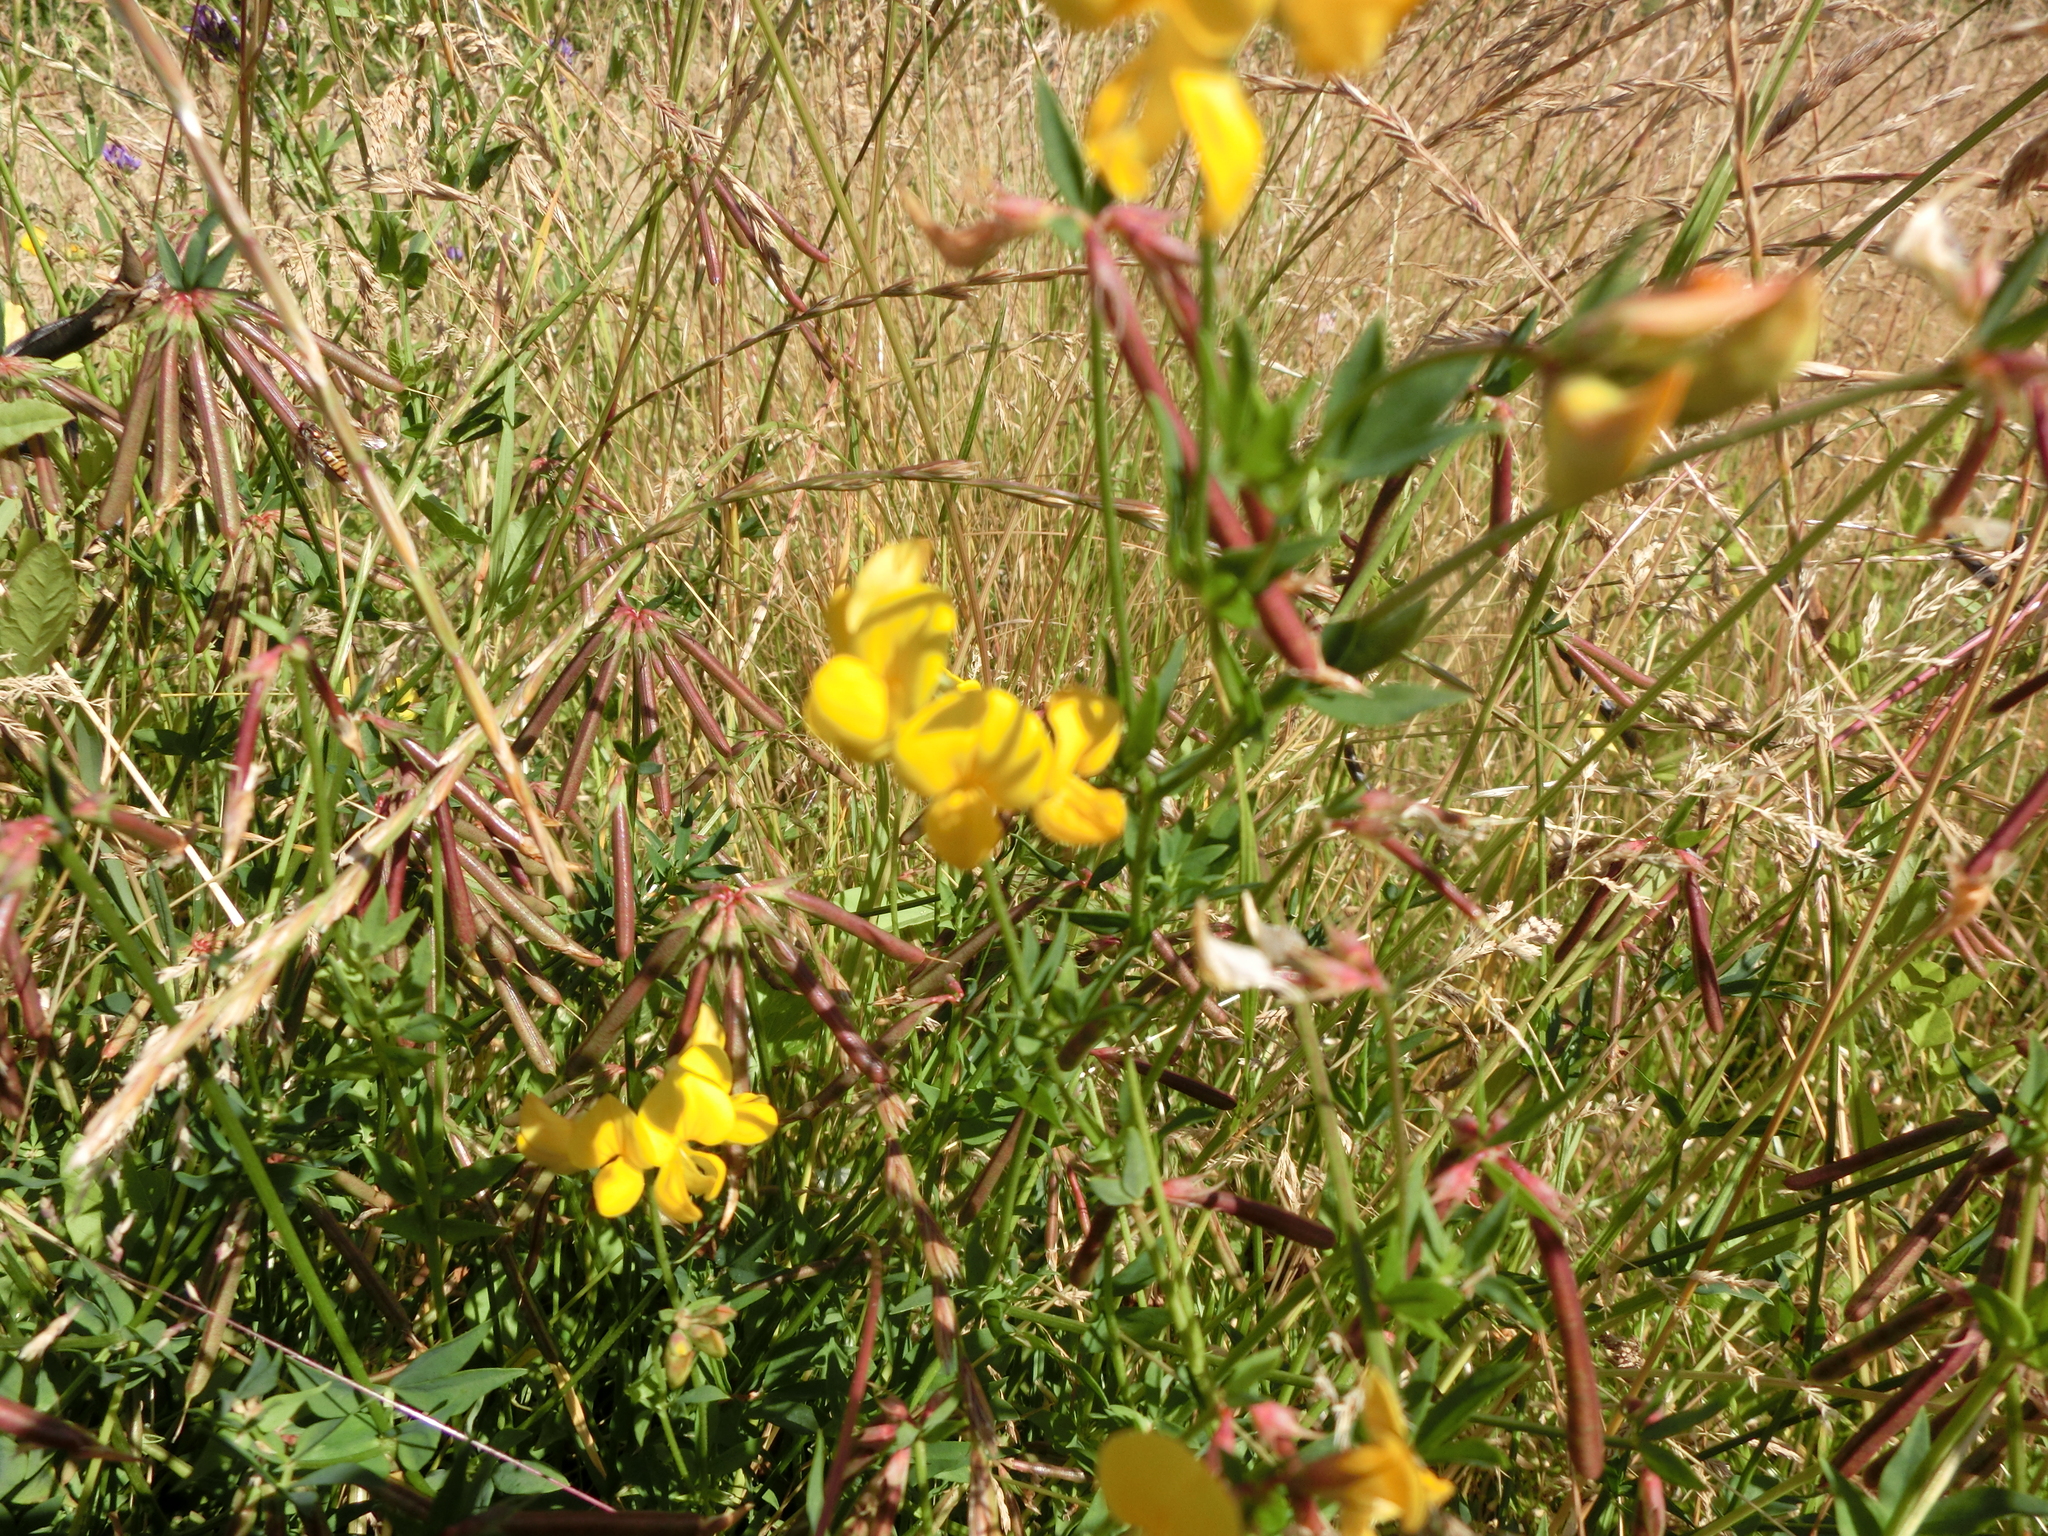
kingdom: Plantae
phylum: Tracheophyta
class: Magnoliopsida
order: Fabales
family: Fabaceae
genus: Lotus
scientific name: Lotus corniculatus
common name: Common bird's-foot-trefoil
